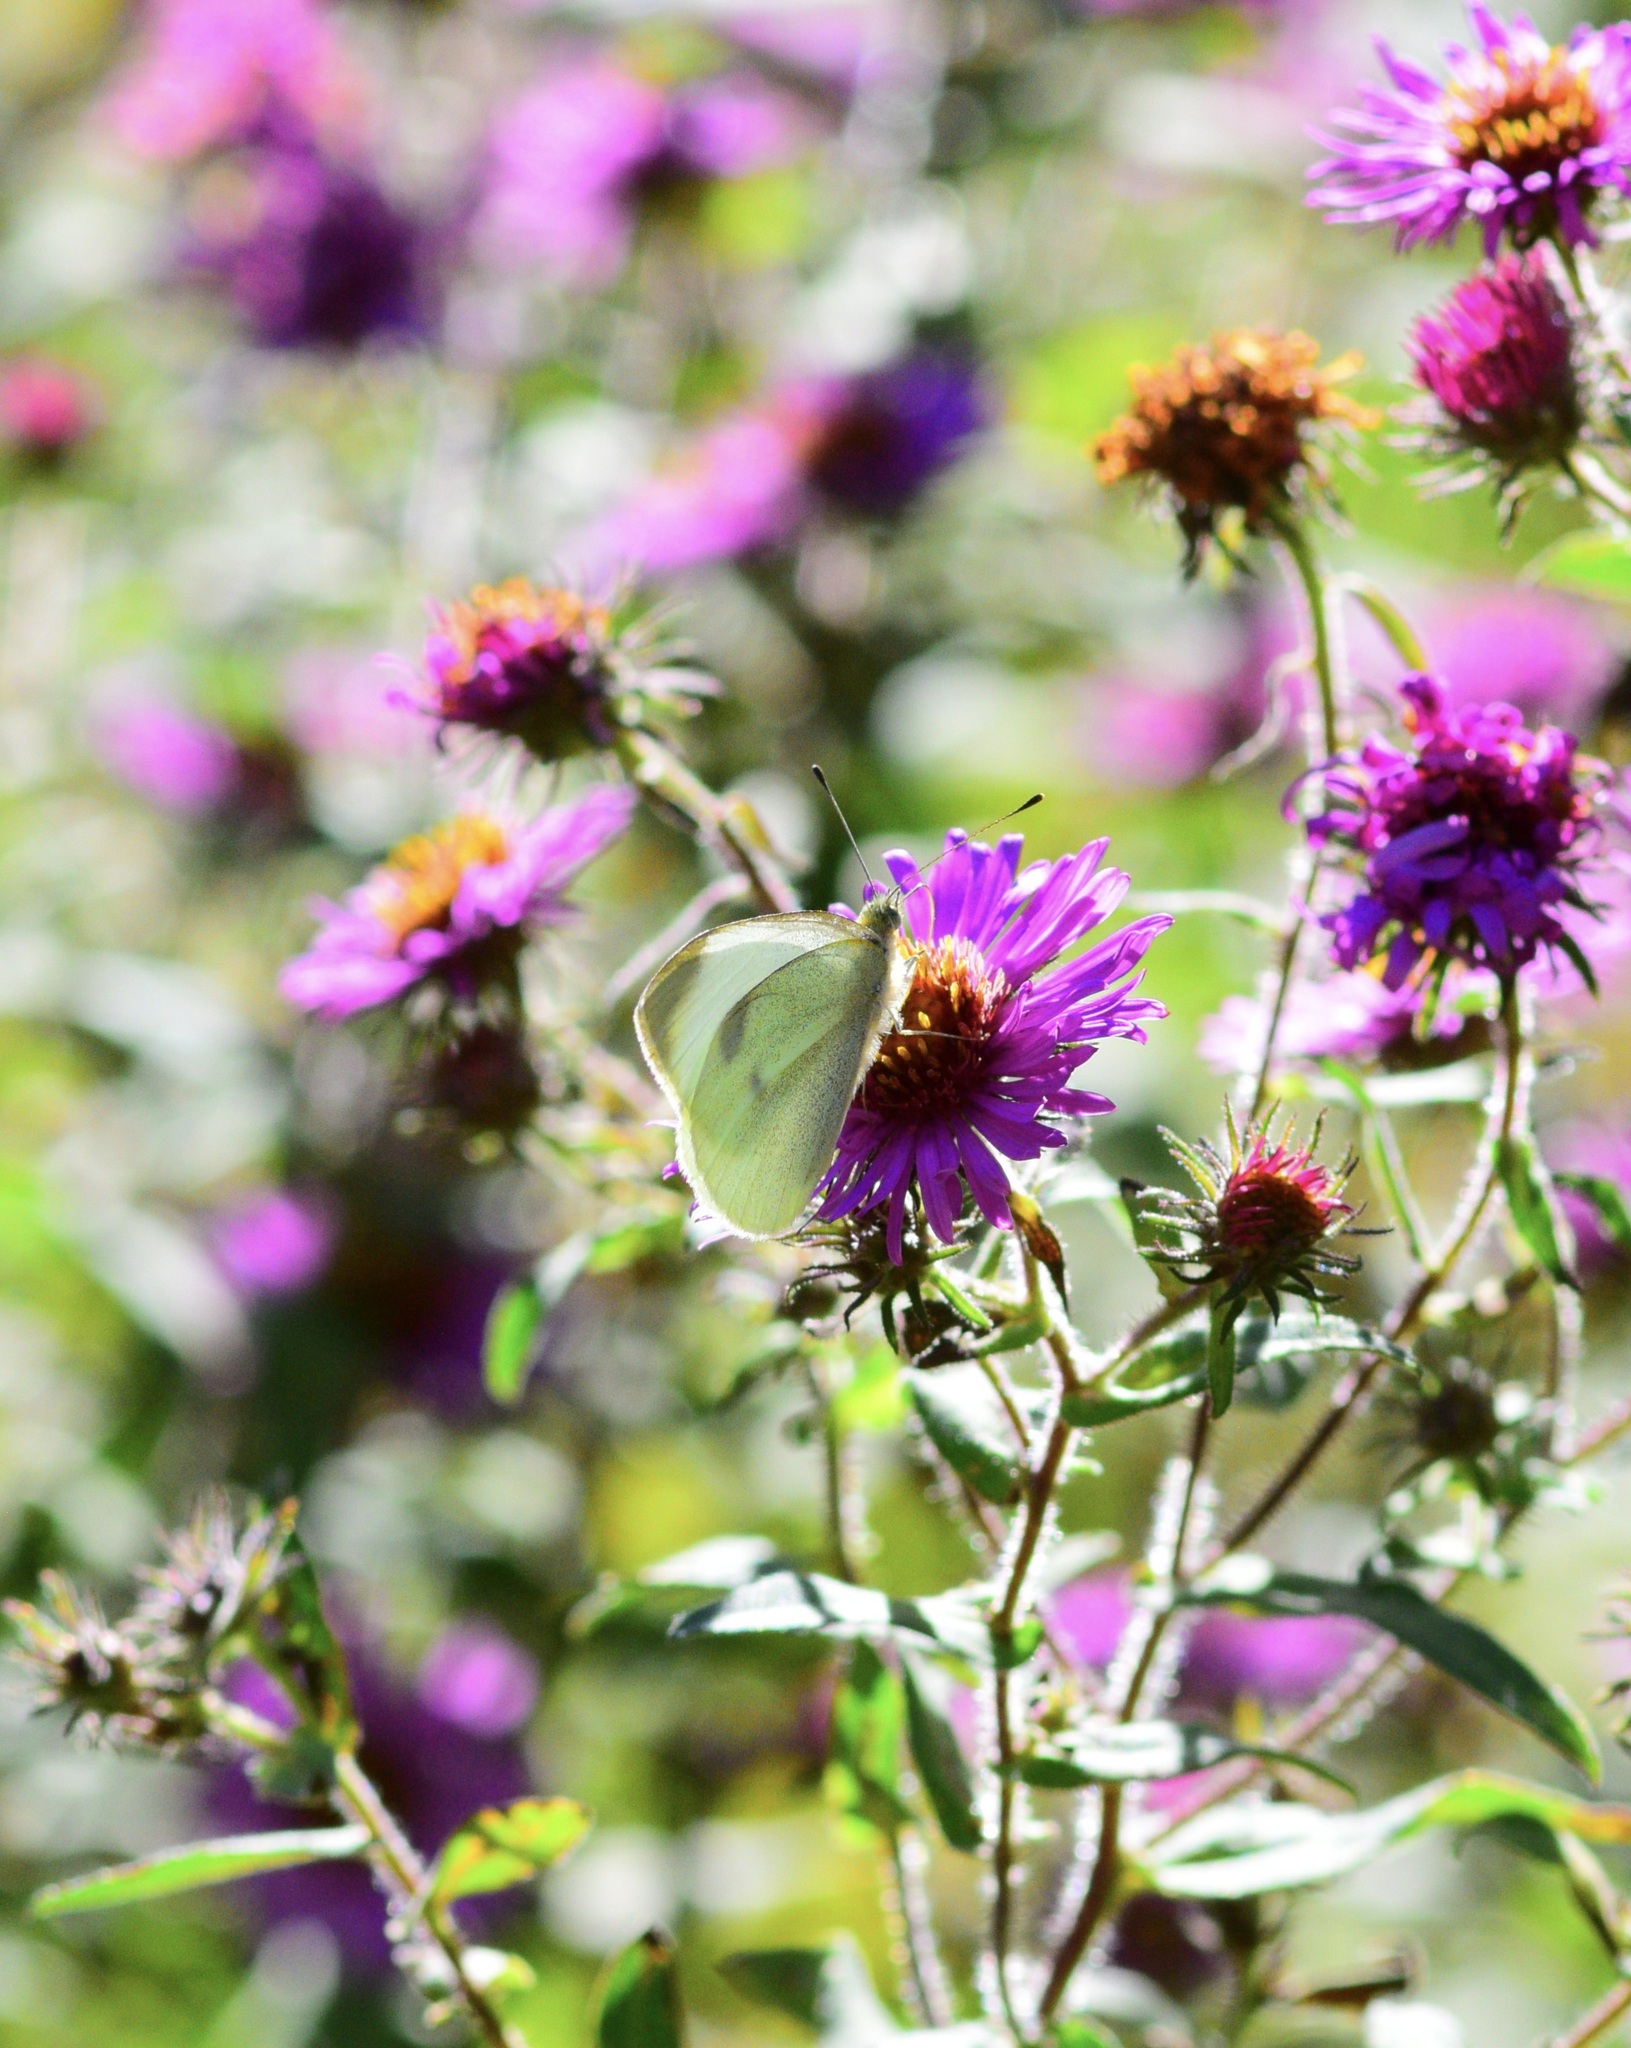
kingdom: Animalia
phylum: Arthropoda
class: Insecta
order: Lepidoptera
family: Pieridae
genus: Pieris
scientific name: Pieris rapae
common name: Small white
